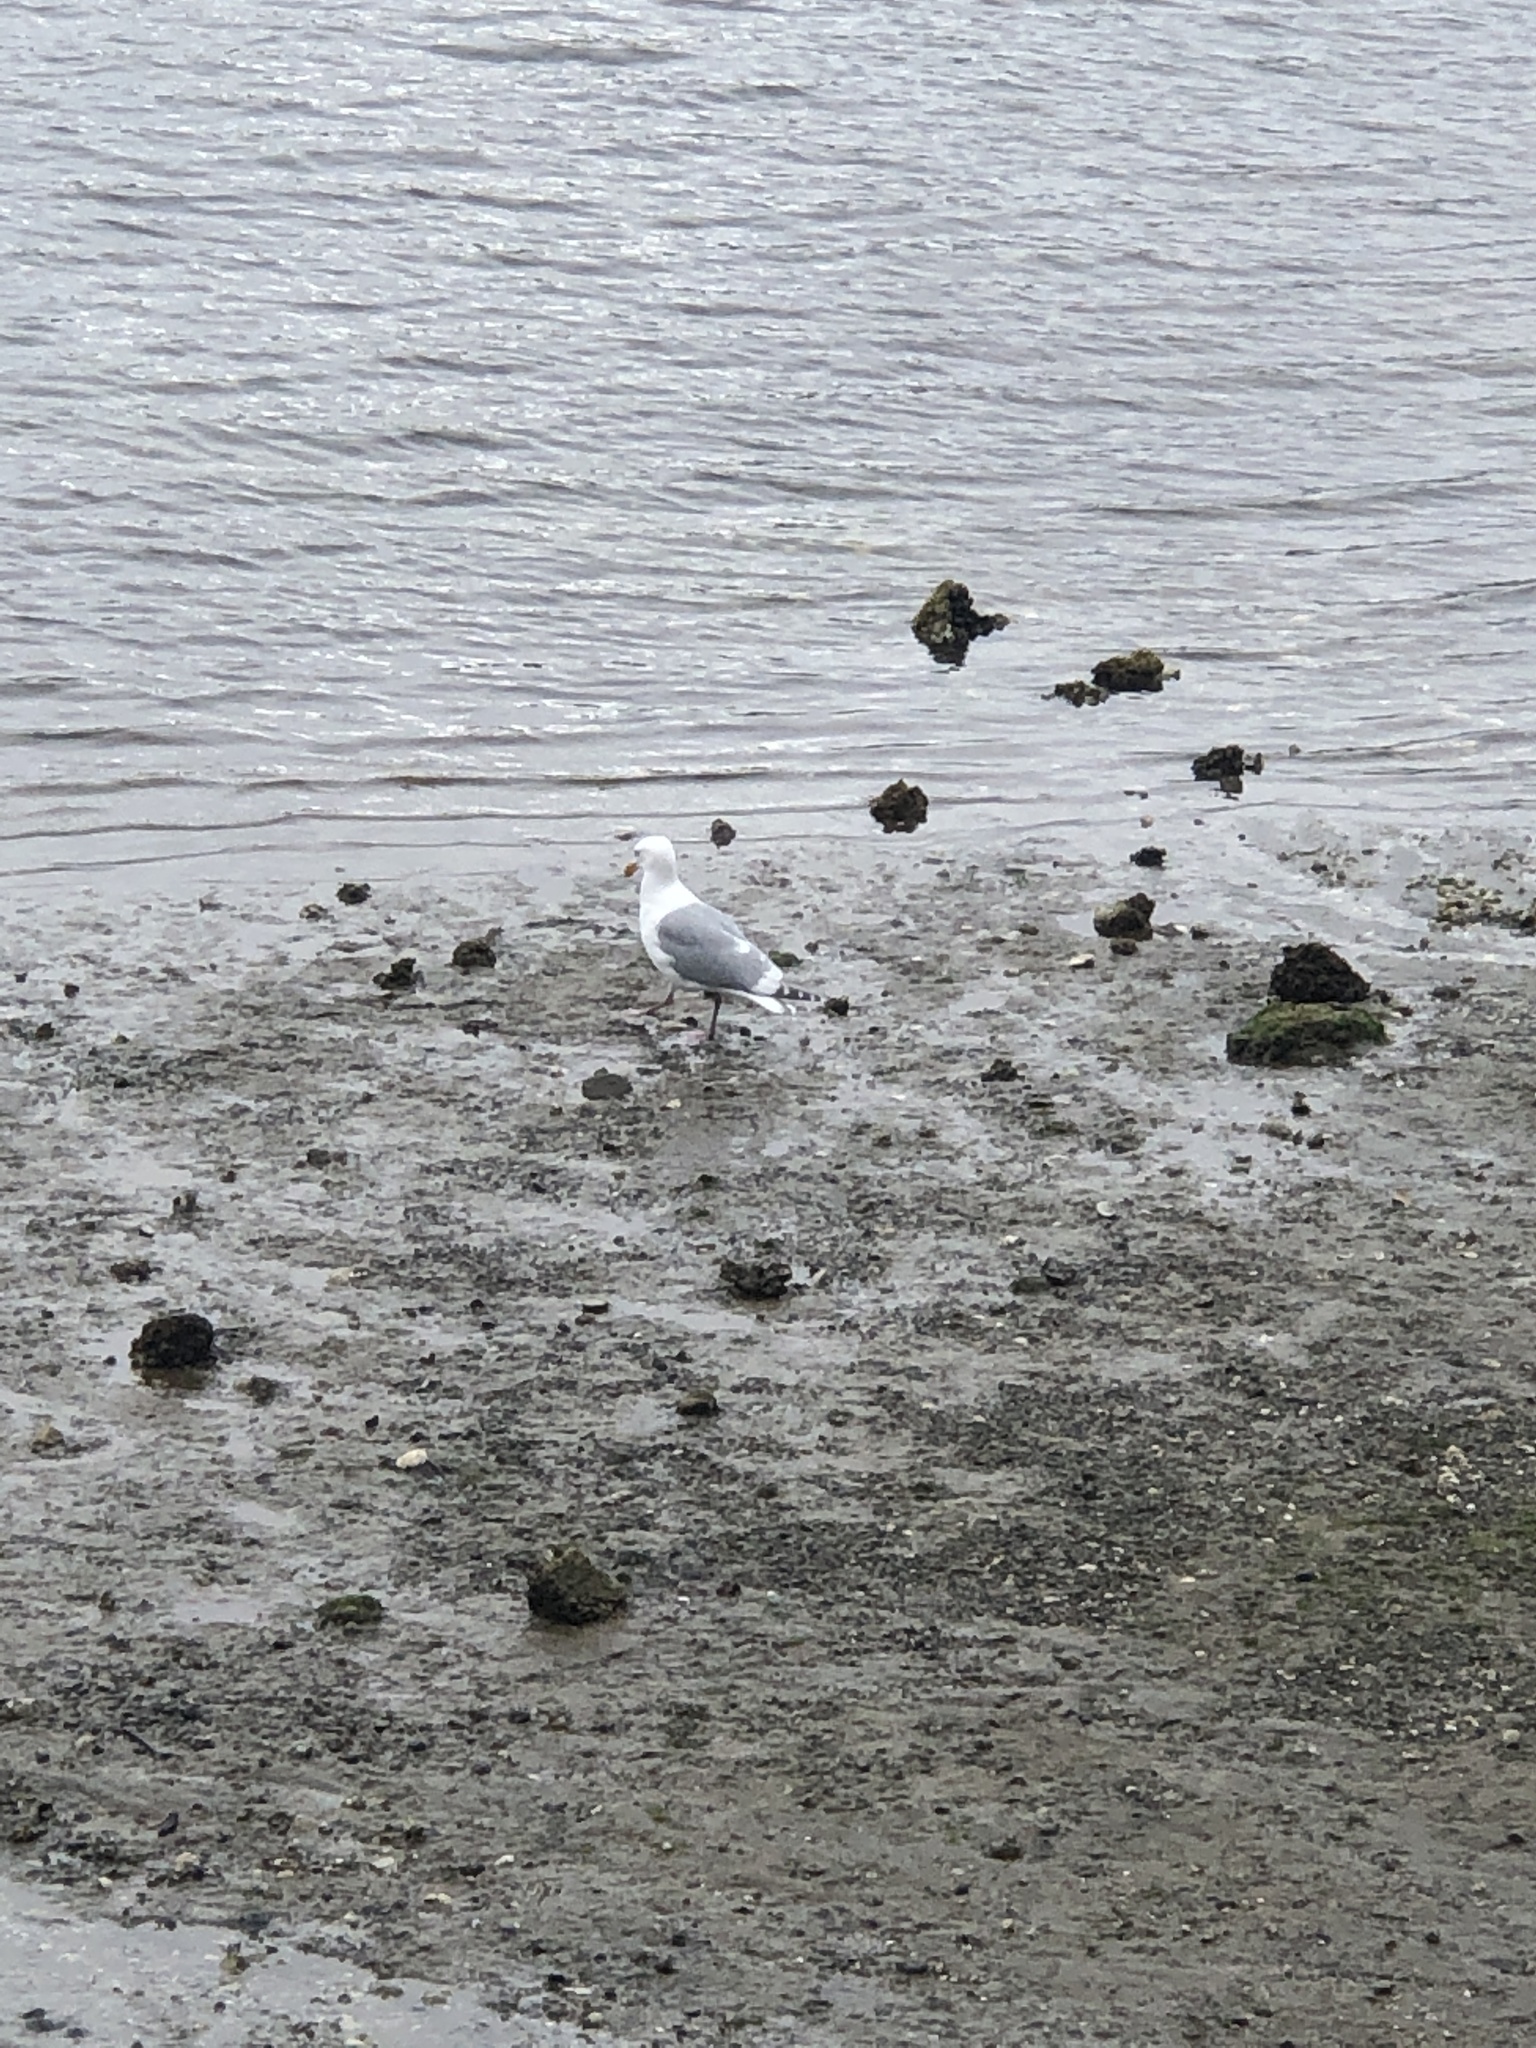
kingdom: Animalia
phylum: Chordata
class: Aves
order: Charadriiformes
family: Laridae
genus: Larus
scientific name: Larus
